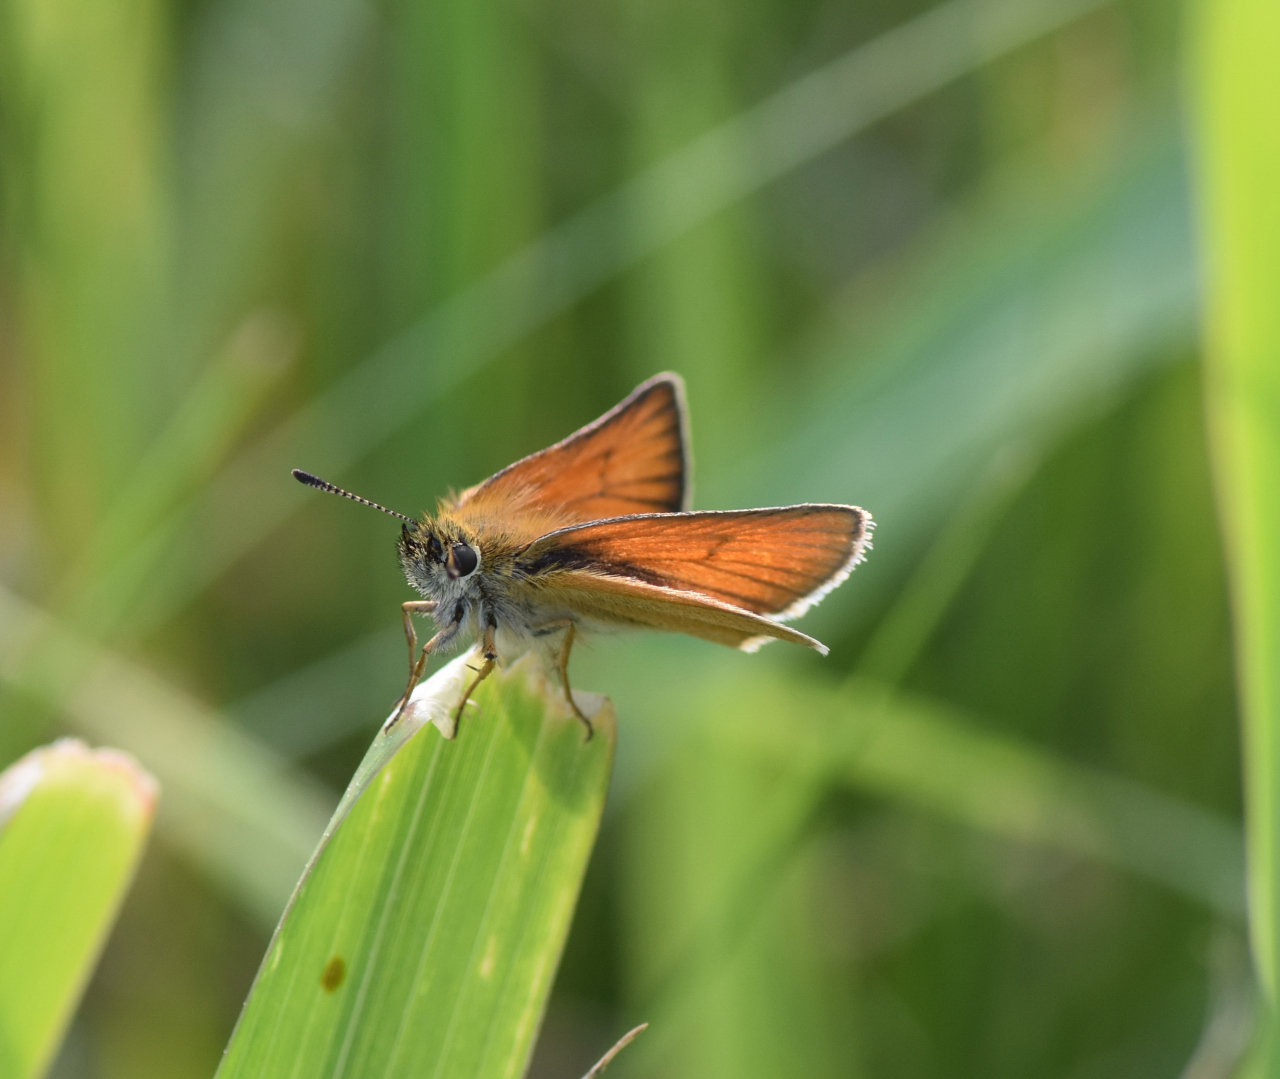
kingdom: Animalia
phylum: Arthropoda
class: Insecta
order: Lepidoptera
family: Hesperiidae
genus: Thymelicus
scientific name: Thymelicus lineola
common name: Essex skipper
